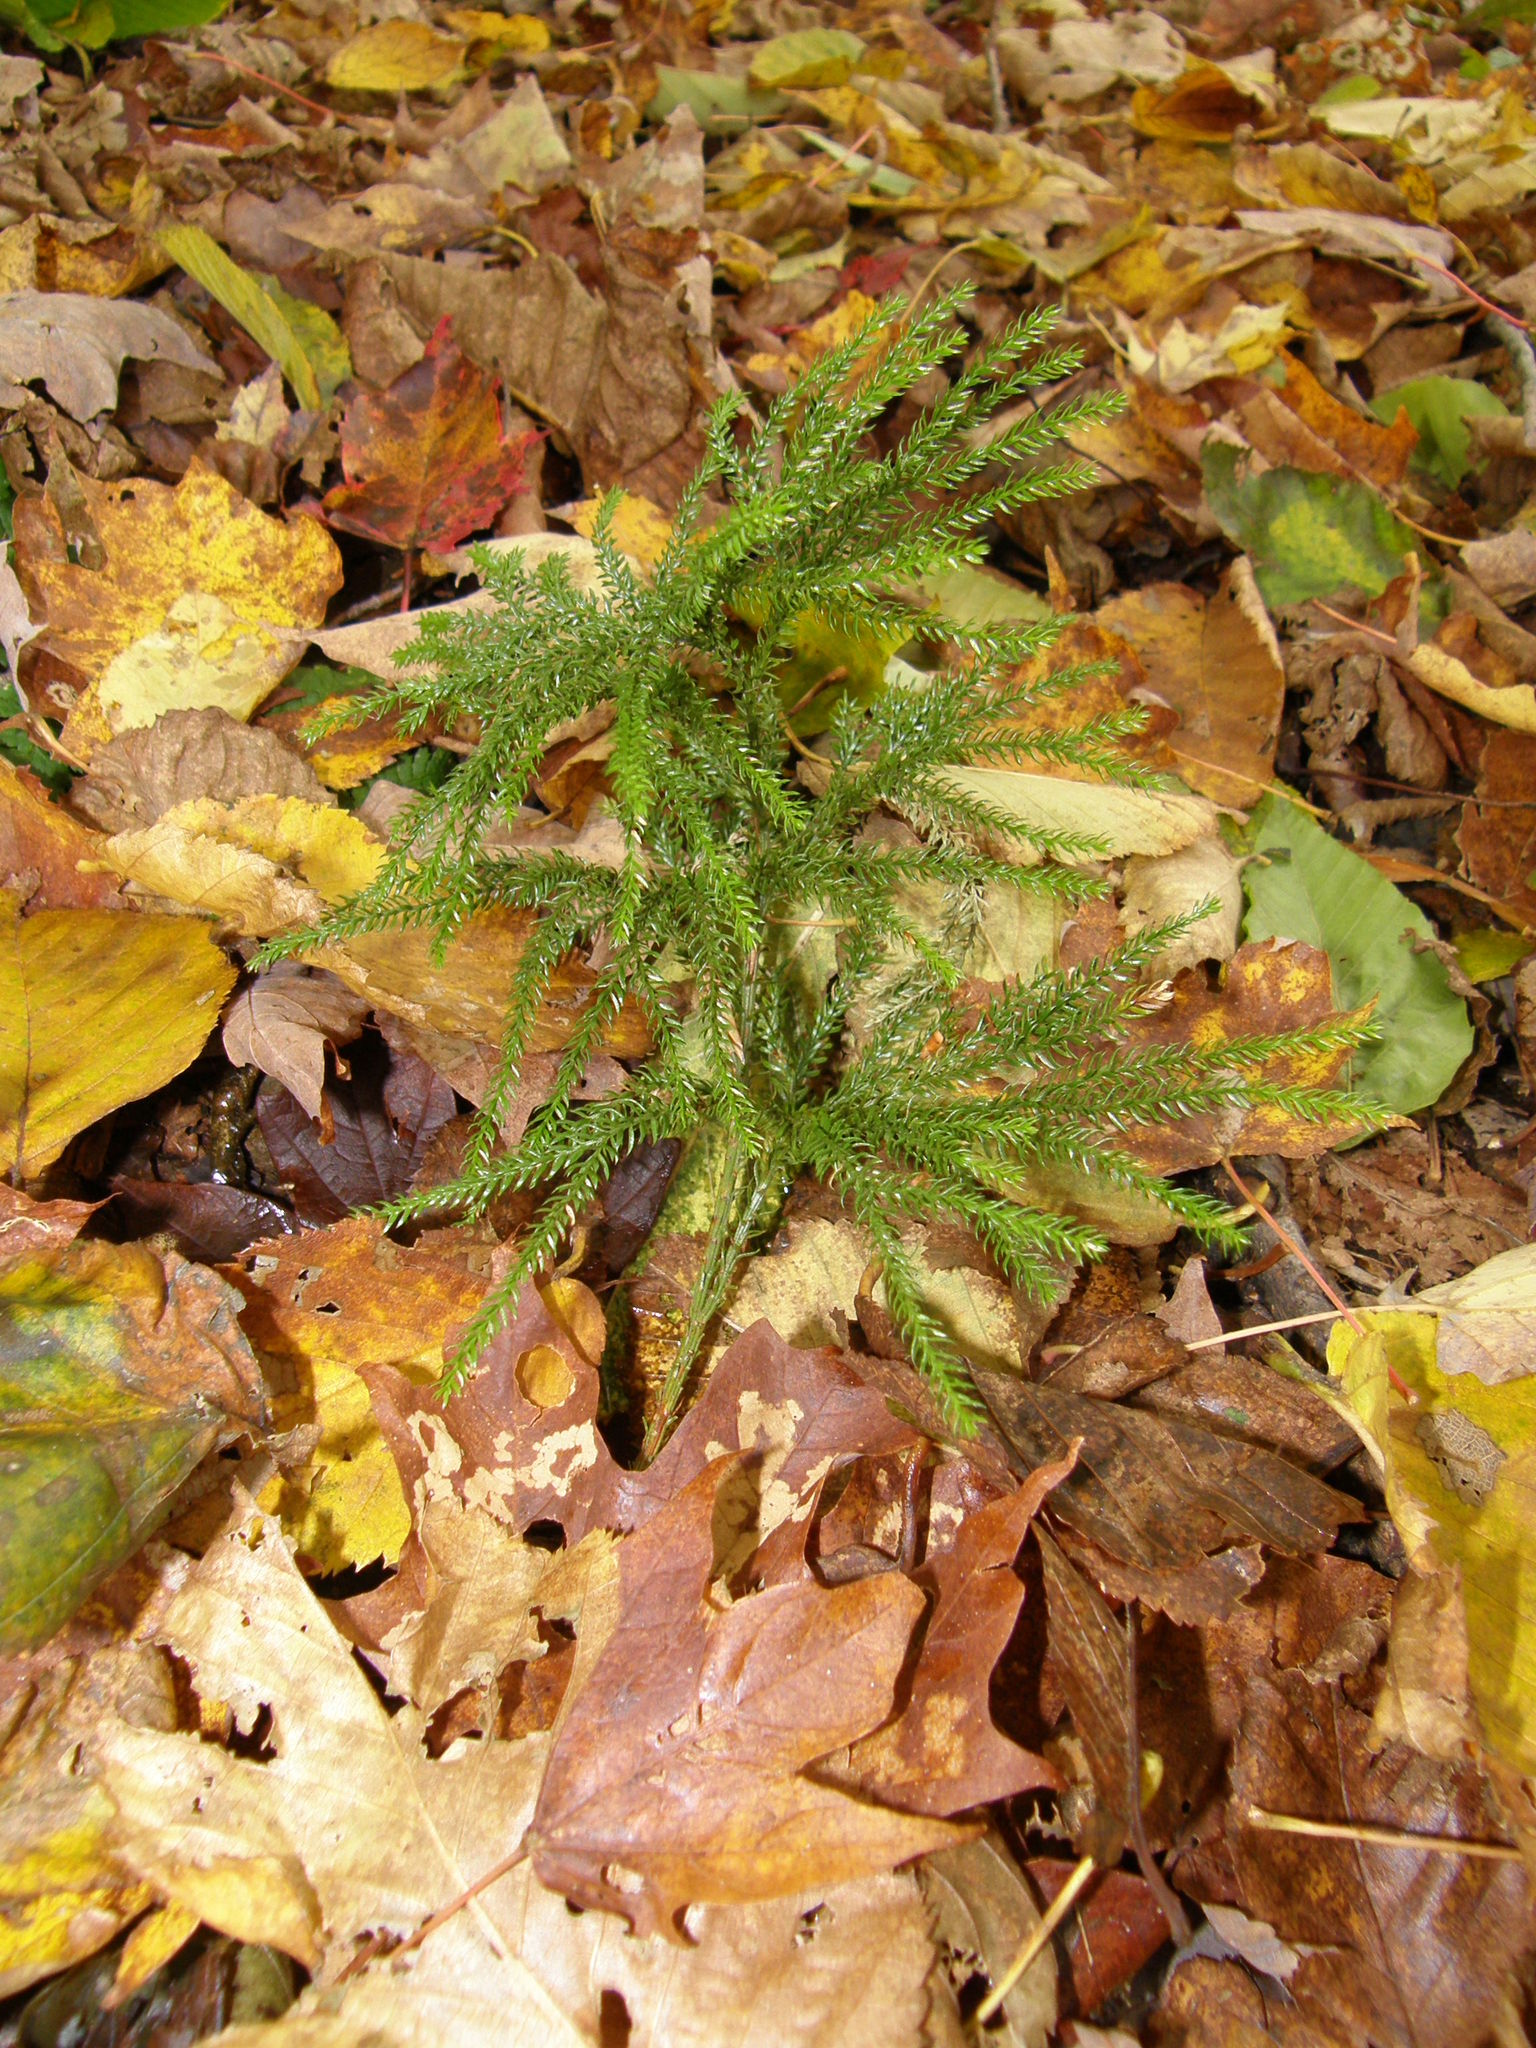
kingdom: Plantae
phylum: Tracheophyta
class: Lycopodiopsida
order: Lycopodiales
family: Lycopodiaceae
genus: Dendrolycopodium
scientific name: Dendrolycopodium hickeyi
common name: Hickey's clubmoss
